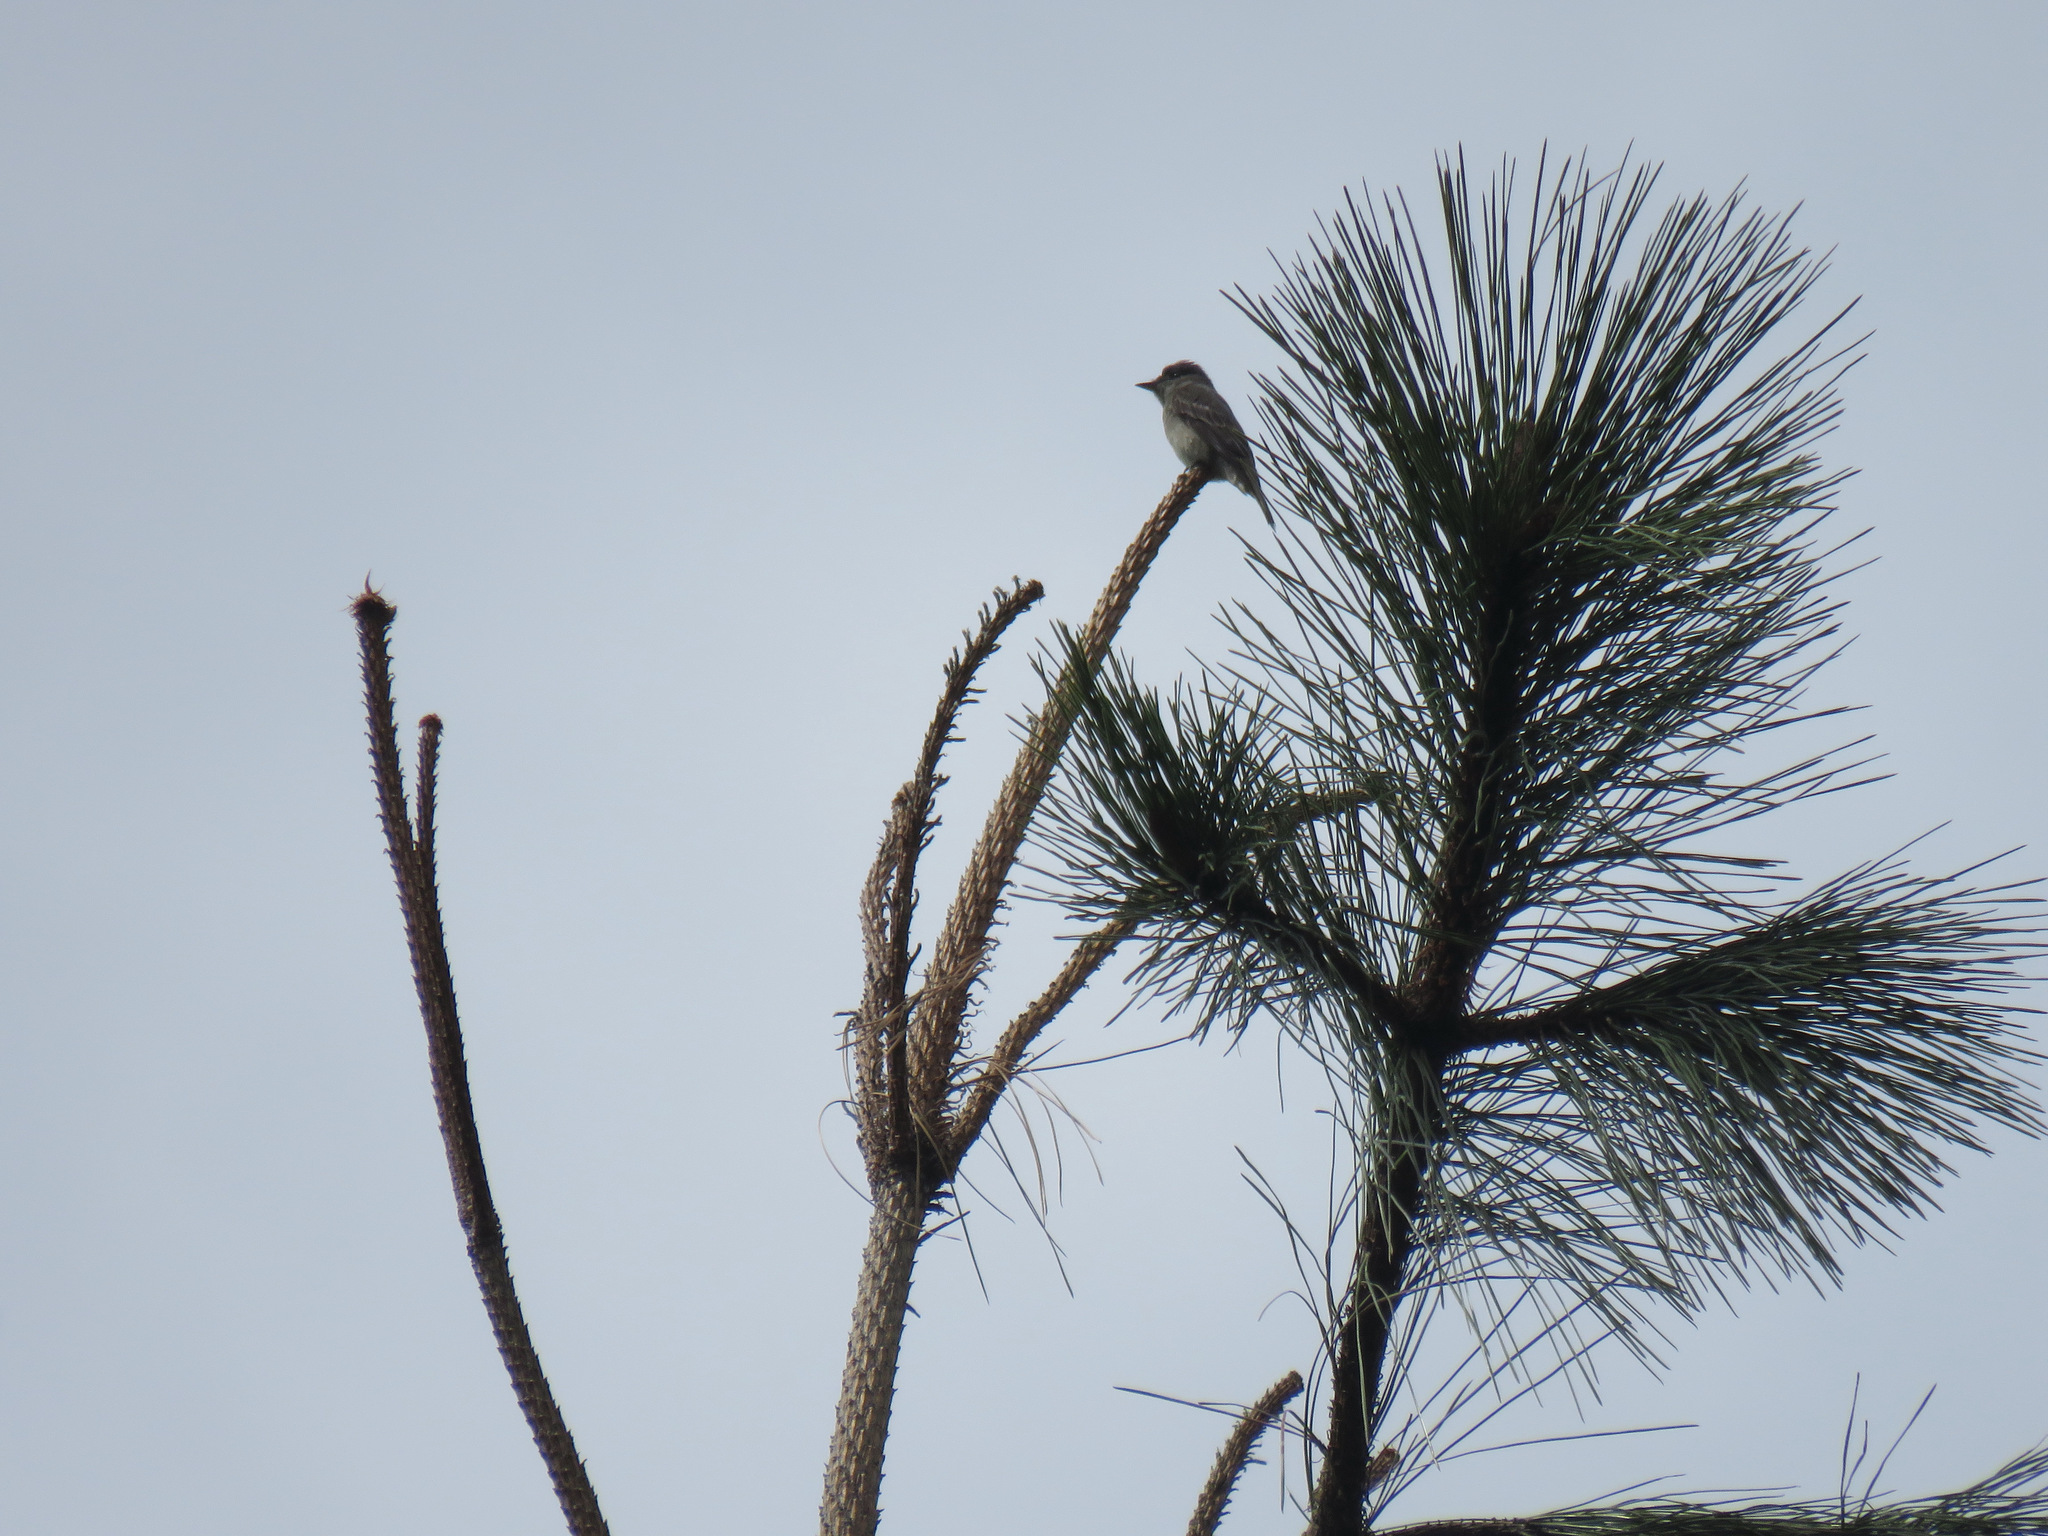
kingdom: Animalia
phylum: Chordata
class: Aves
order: Passeriformes
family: Tyrannidae
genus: Contopus
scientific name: Contopus sordidulus
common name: Western wood-pewee
